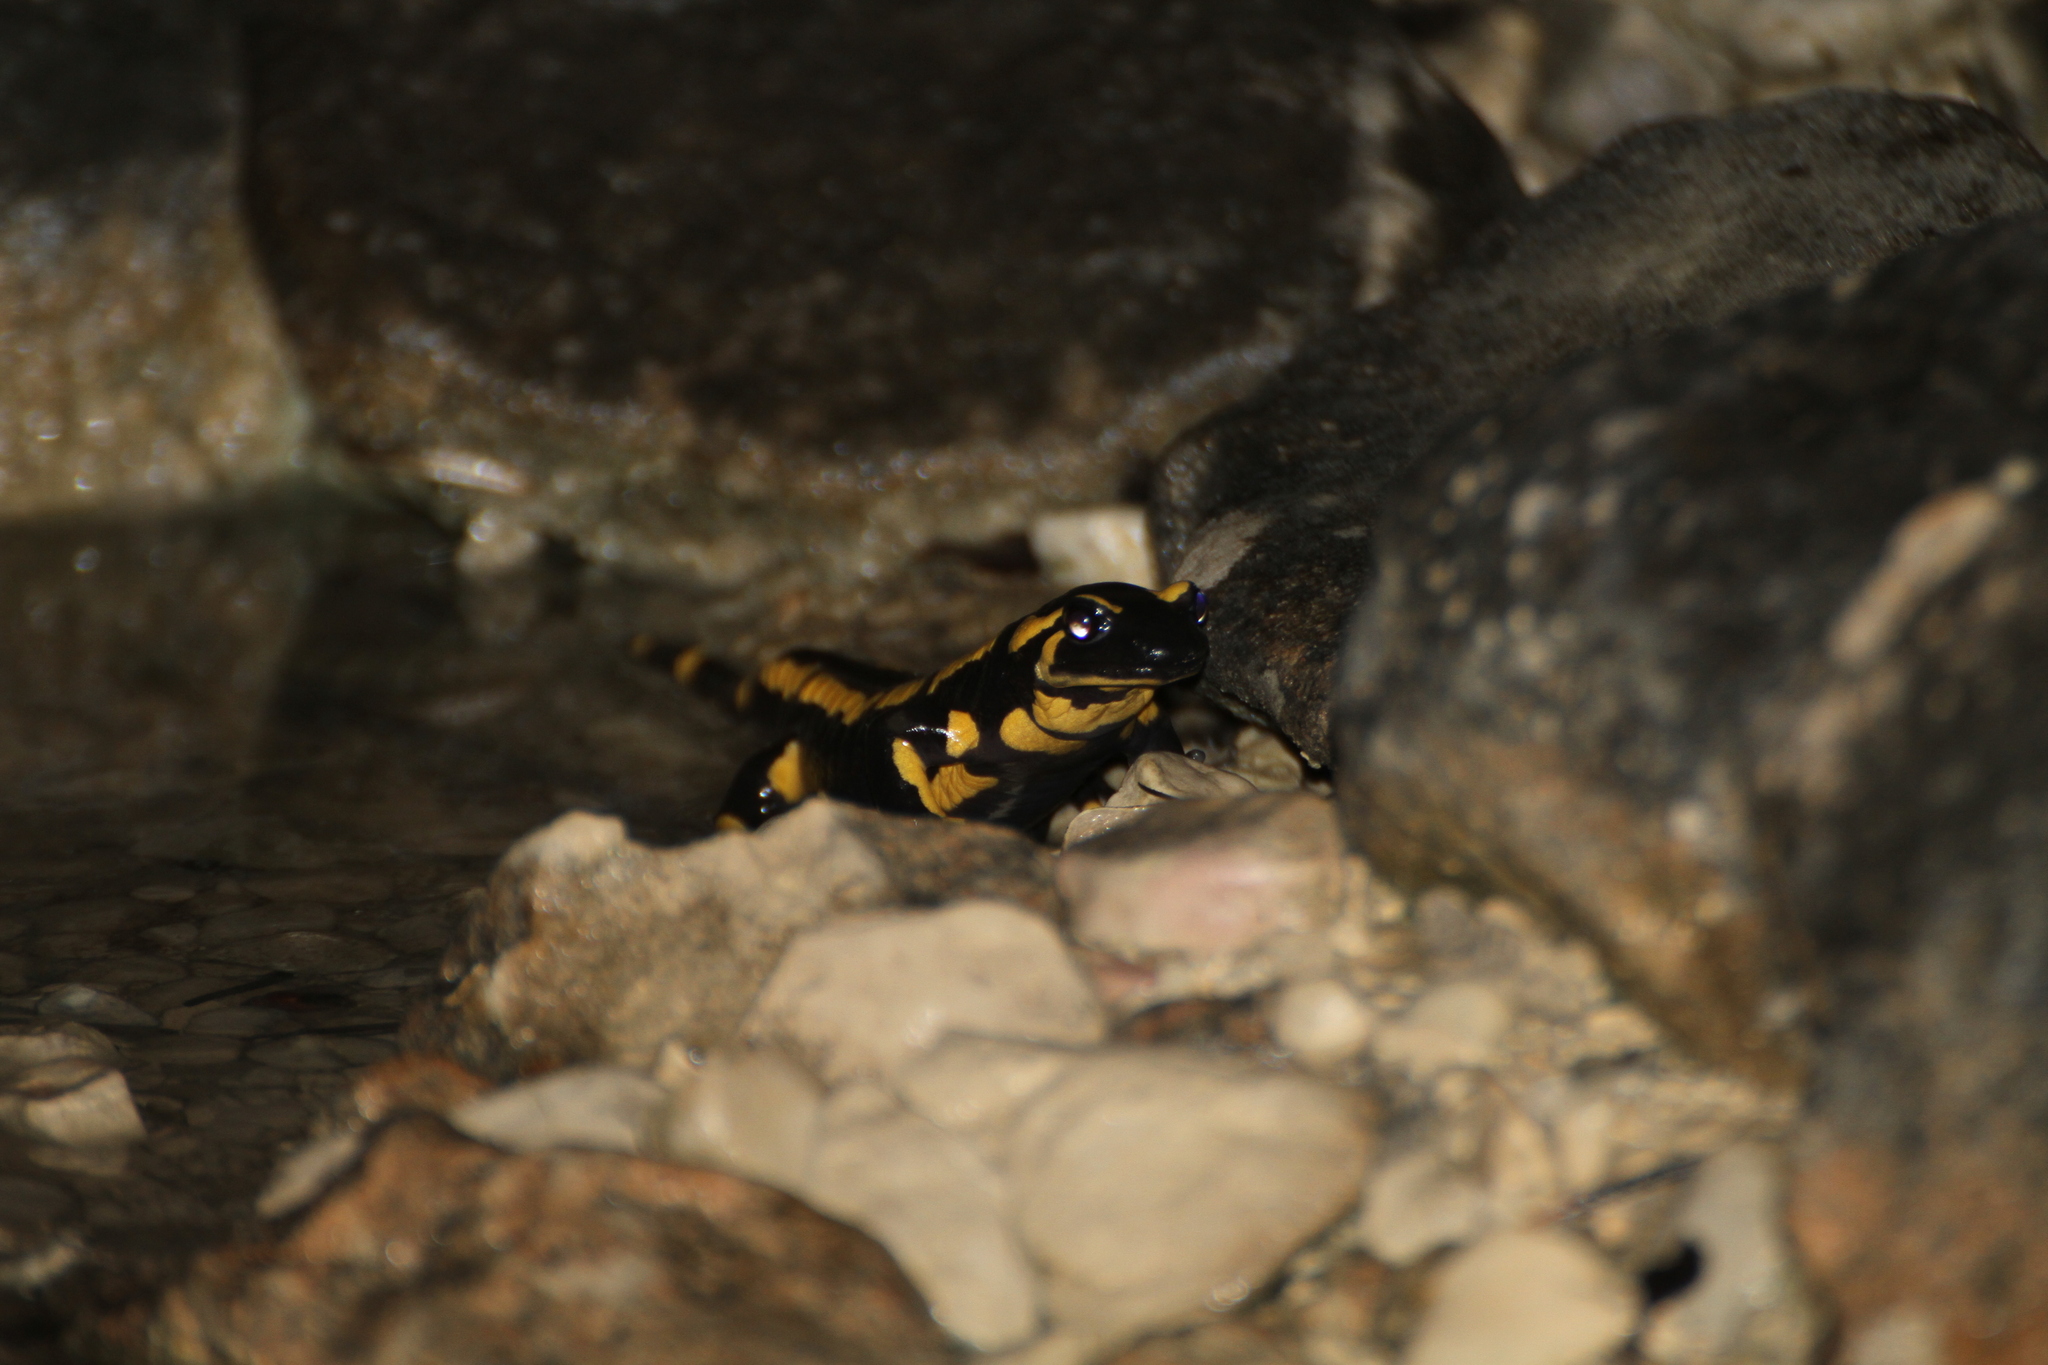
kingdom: Animalia
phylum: Chordata
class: Amphibia
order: Caudata
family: Salamandridae
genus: Salamandra
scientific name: Salamandra salamandra
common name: Fire salamander
